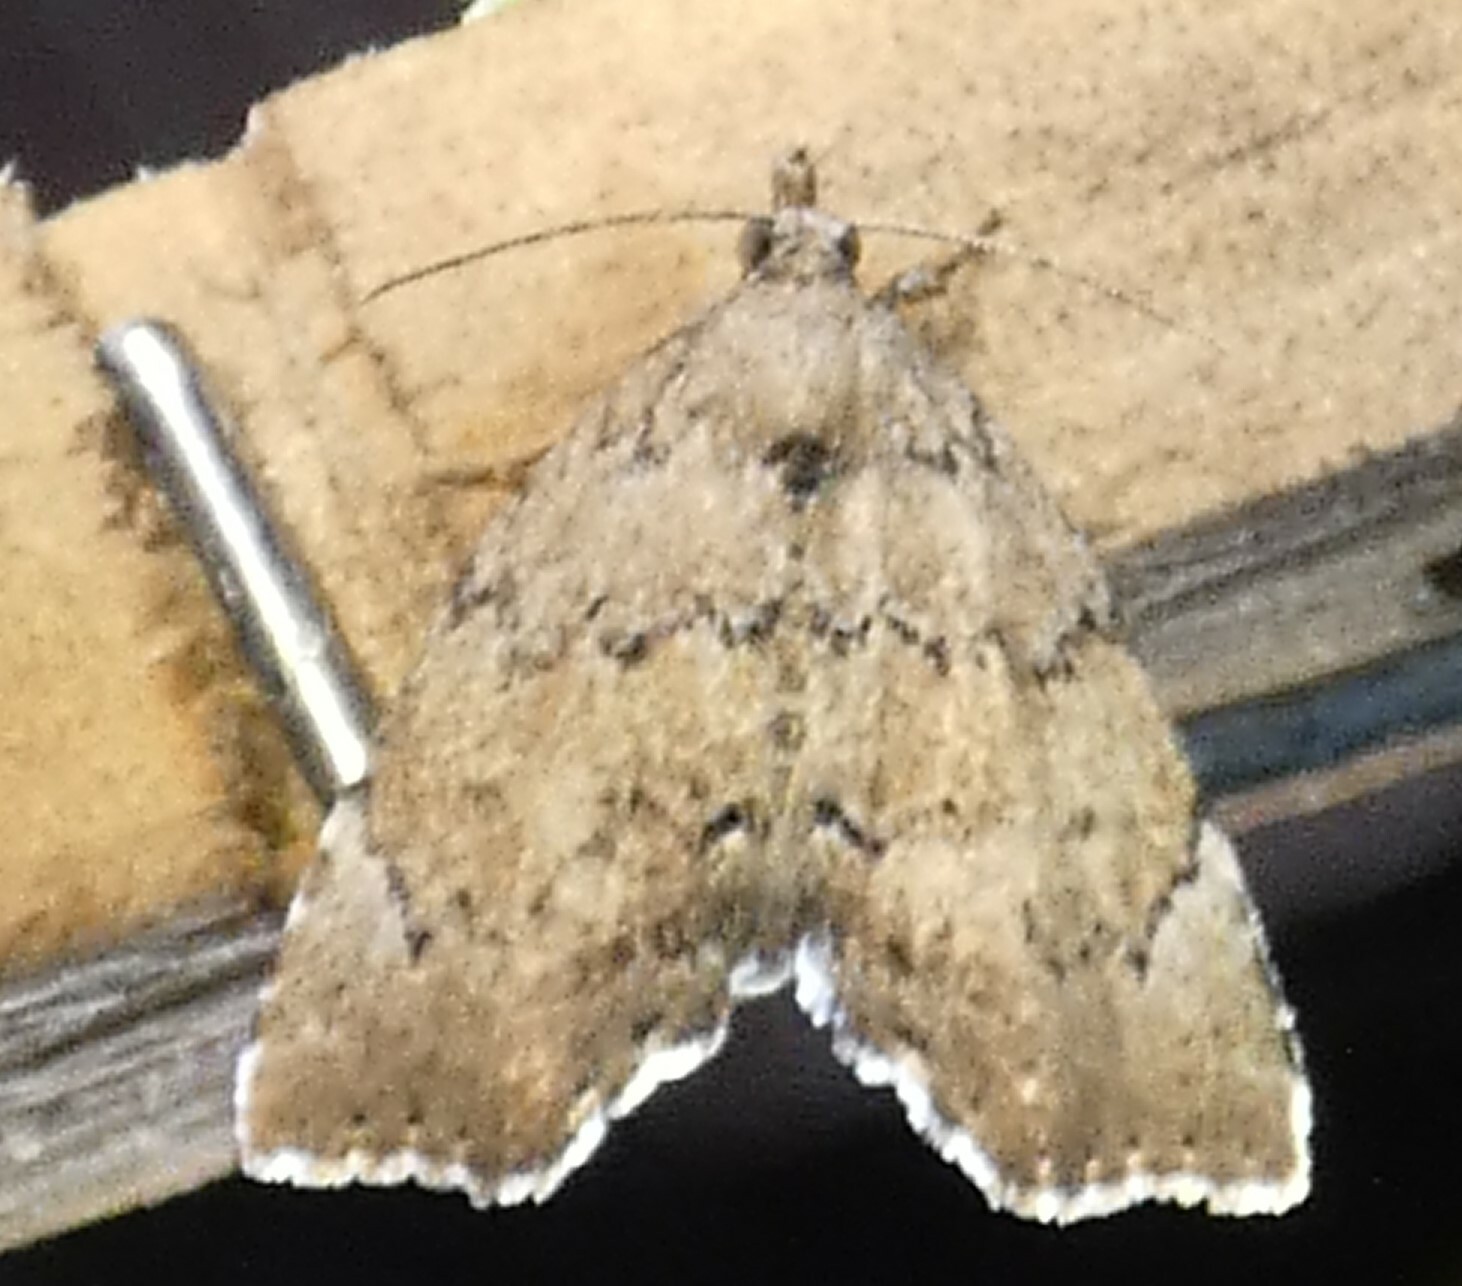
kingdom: Animalia
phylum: Arthropoda
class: Insecta
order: Lepidoptera
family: Erebidae
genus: Cutina
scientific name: Cutina aluticolor
